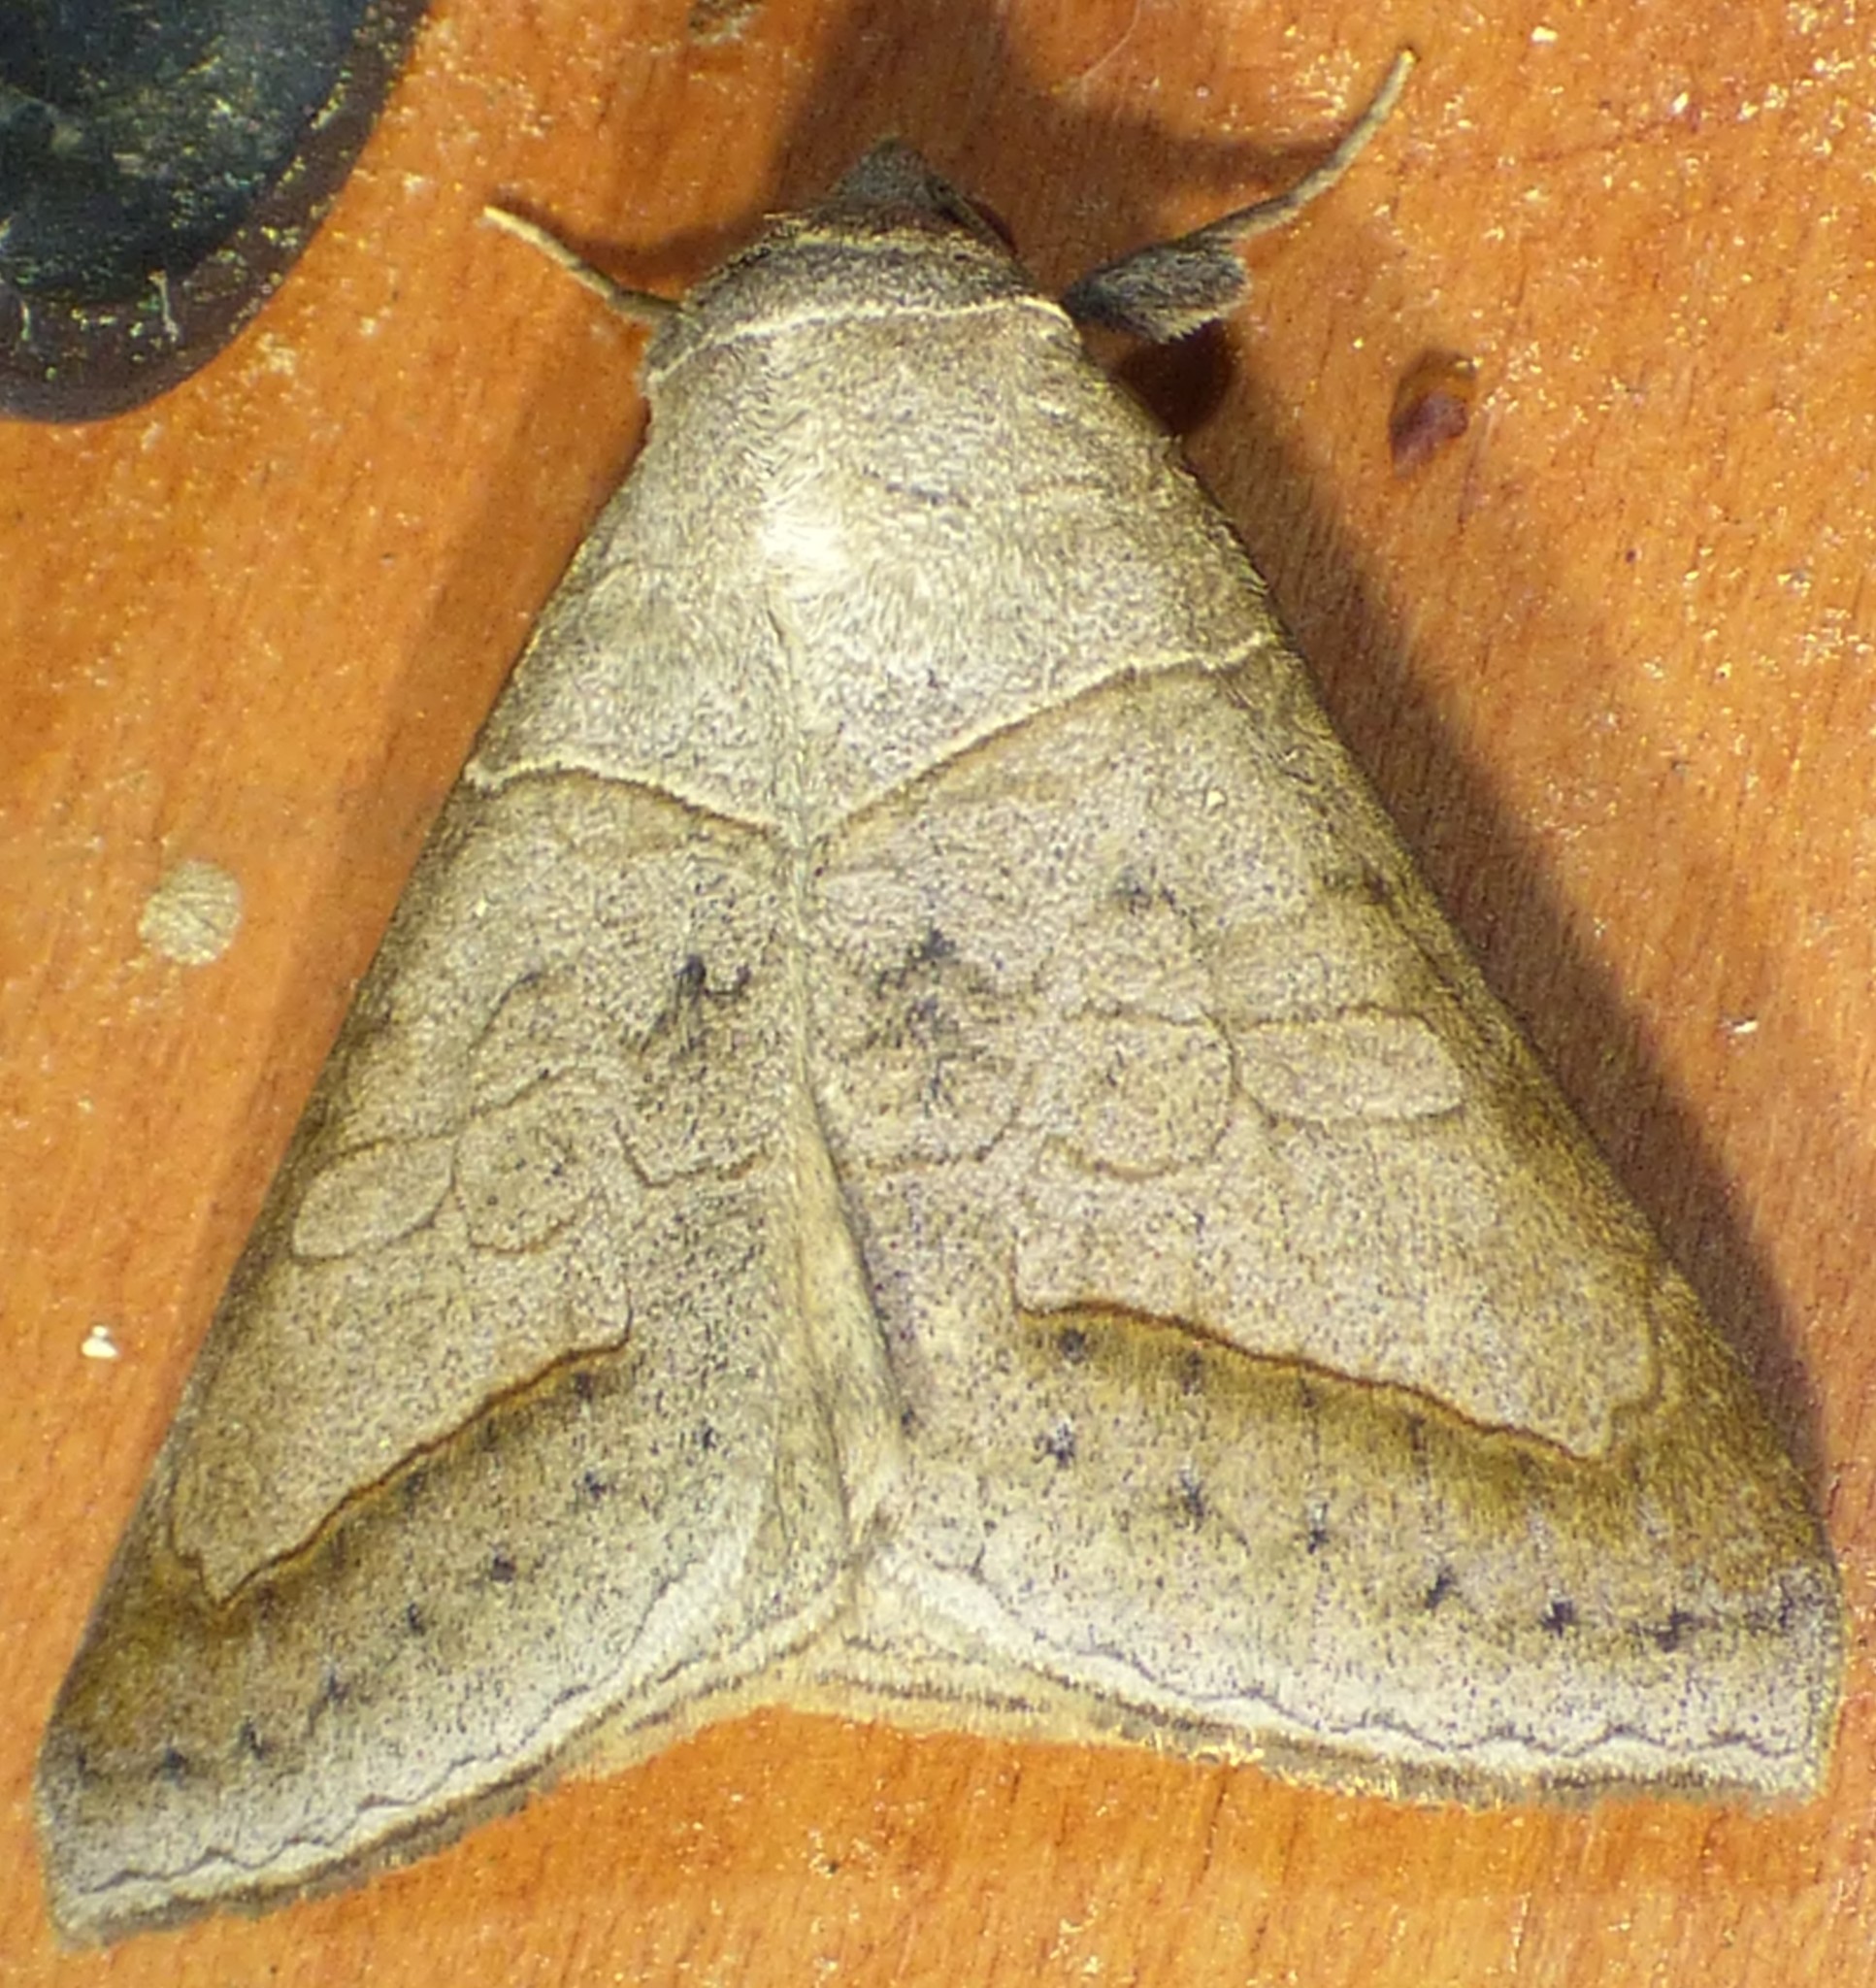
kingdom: Animalia
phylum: Arthropoda
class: Insecta
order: Lepidoptera
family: Erebidae
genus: Mocis
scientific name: Mocis marcida
